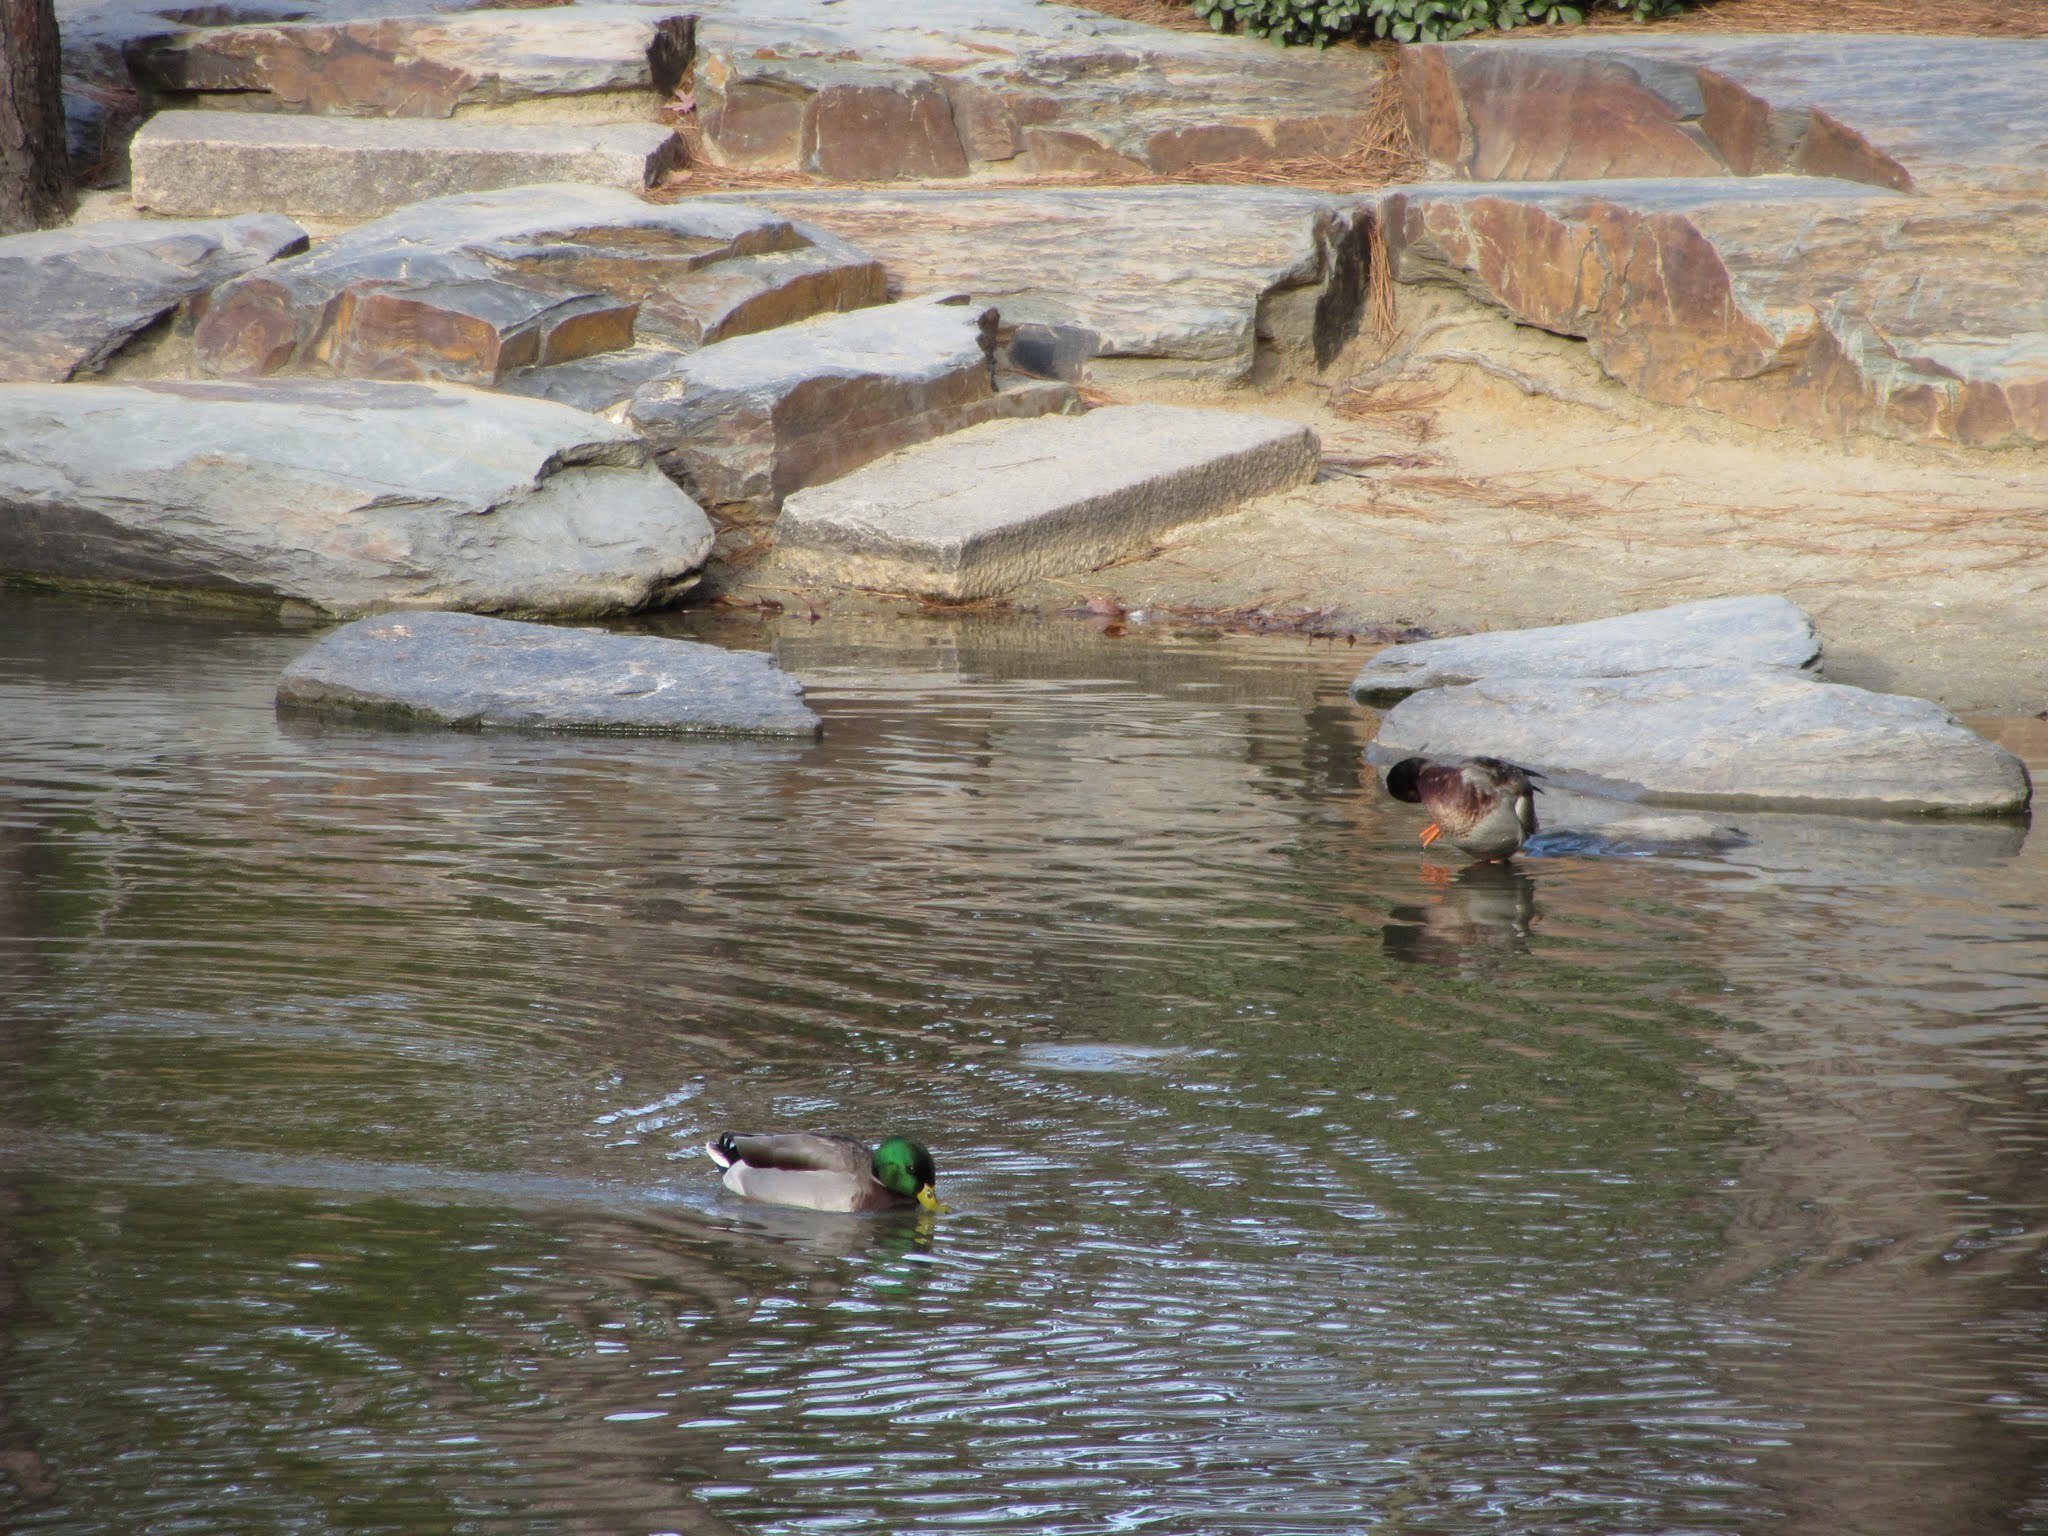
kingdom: Animalia
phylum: Chordata
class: Aves
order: Anseriformes
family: Anatidae
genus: Anas
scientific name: Anas platyrhynchos
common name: Mallard
